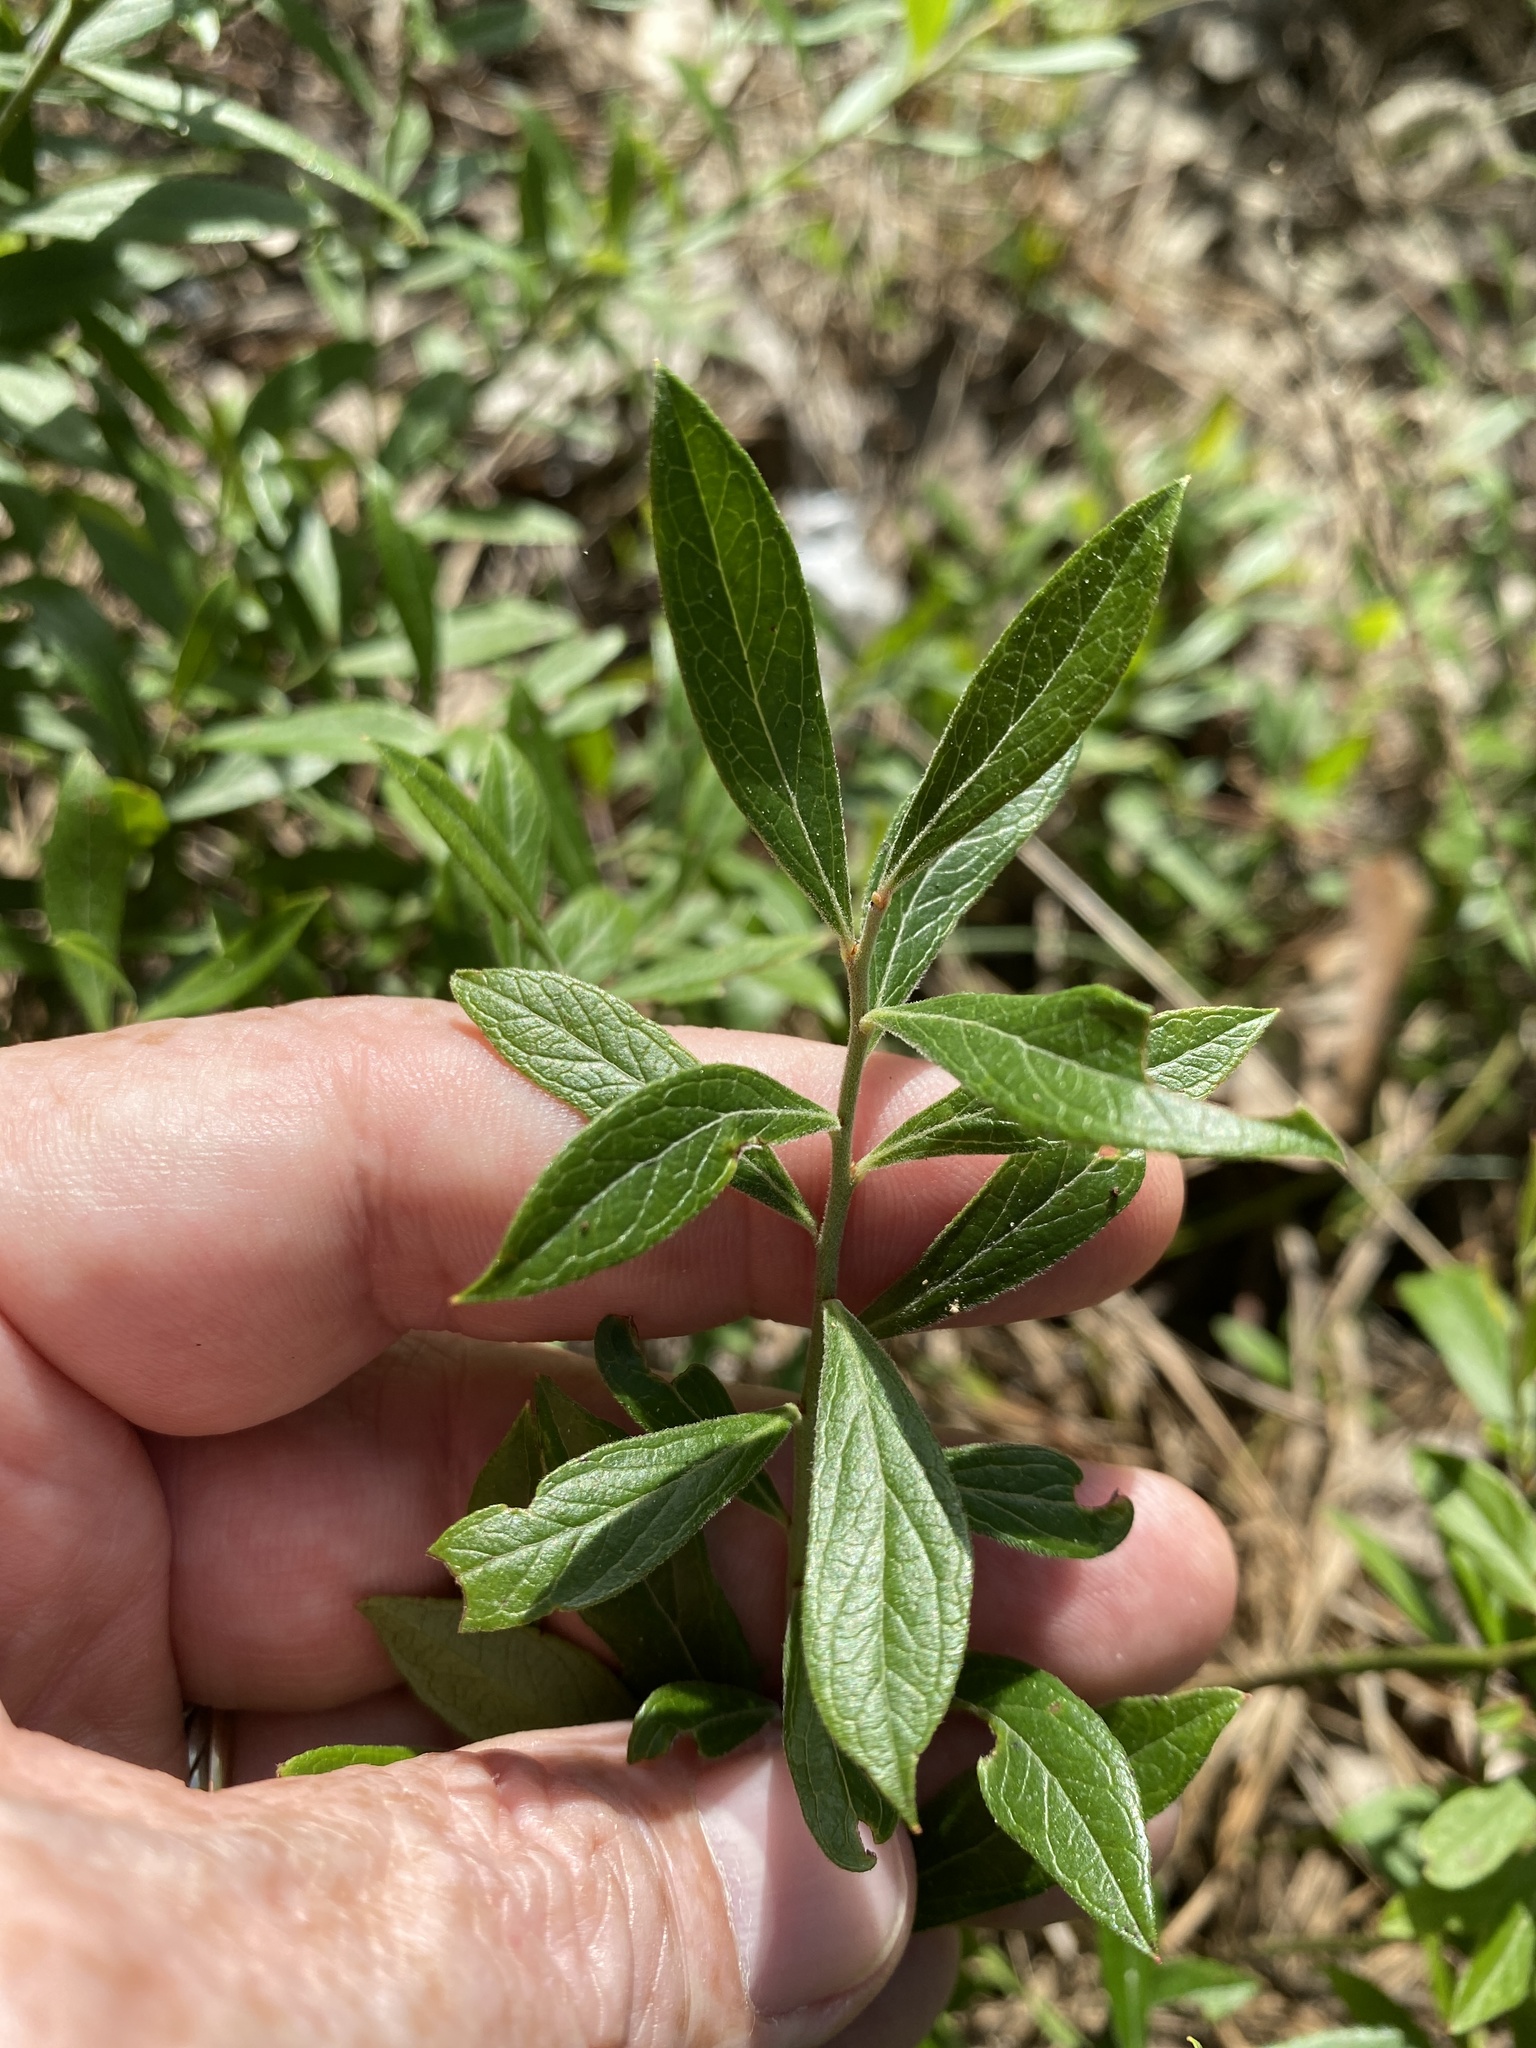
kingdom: Plantae
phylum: Tracheophyta
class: Magnoliopsida
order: Ericales
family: Ericaceae
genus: Vaccinium
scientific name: Vaccinium tenellum
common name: Southern blueberry
